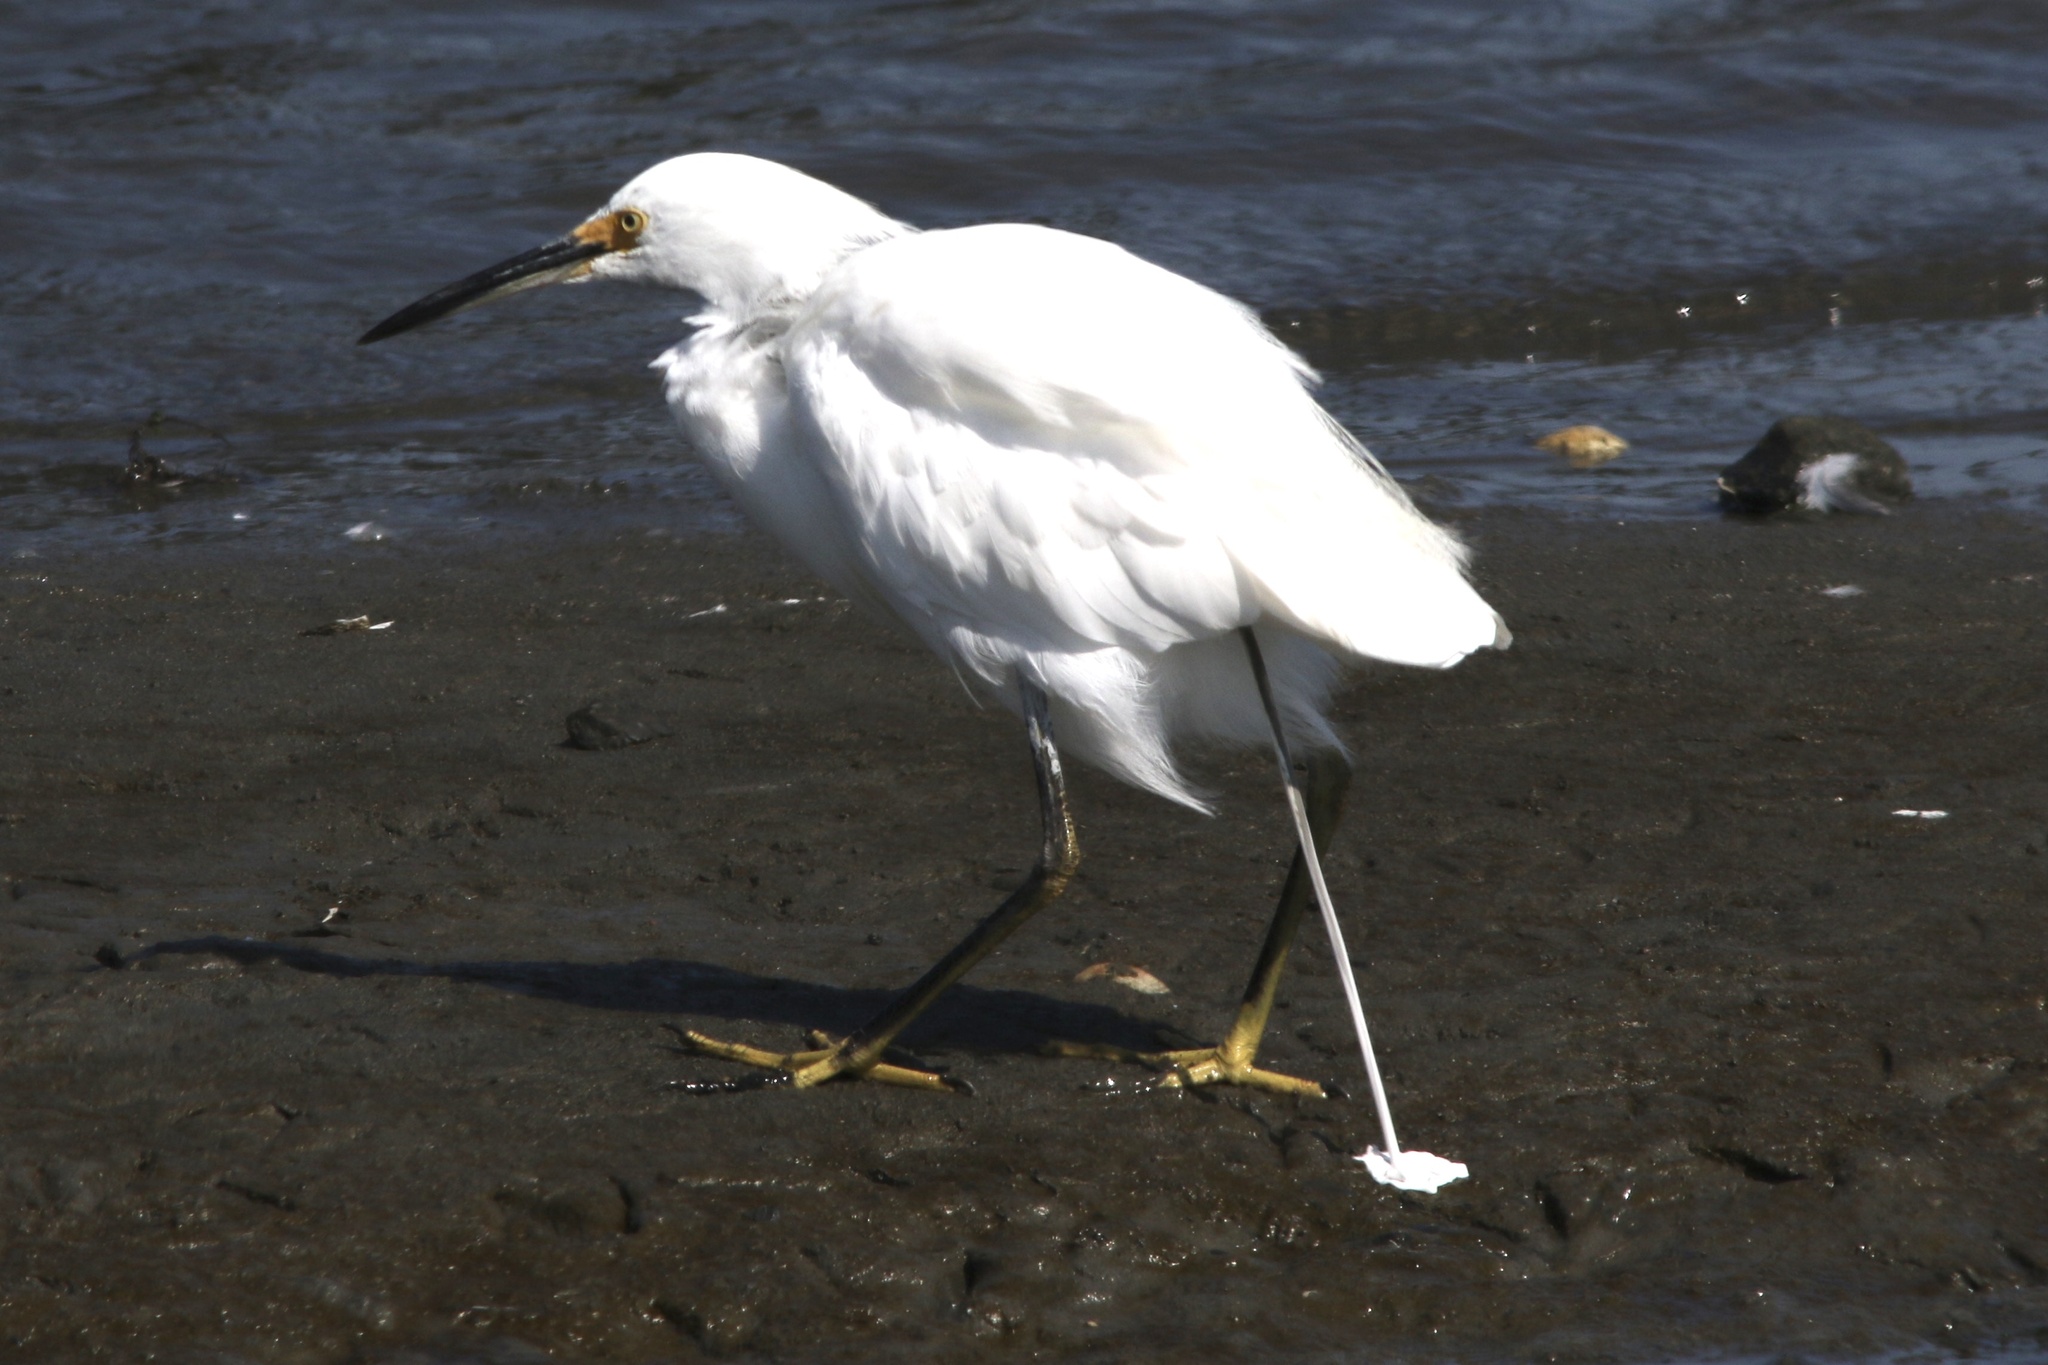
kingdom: Animalia
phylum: Chordata
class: Aves
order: Pelecaniformes
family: Ardeidae
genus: Egretta
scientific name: Egretta thula
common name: Snowy egret
